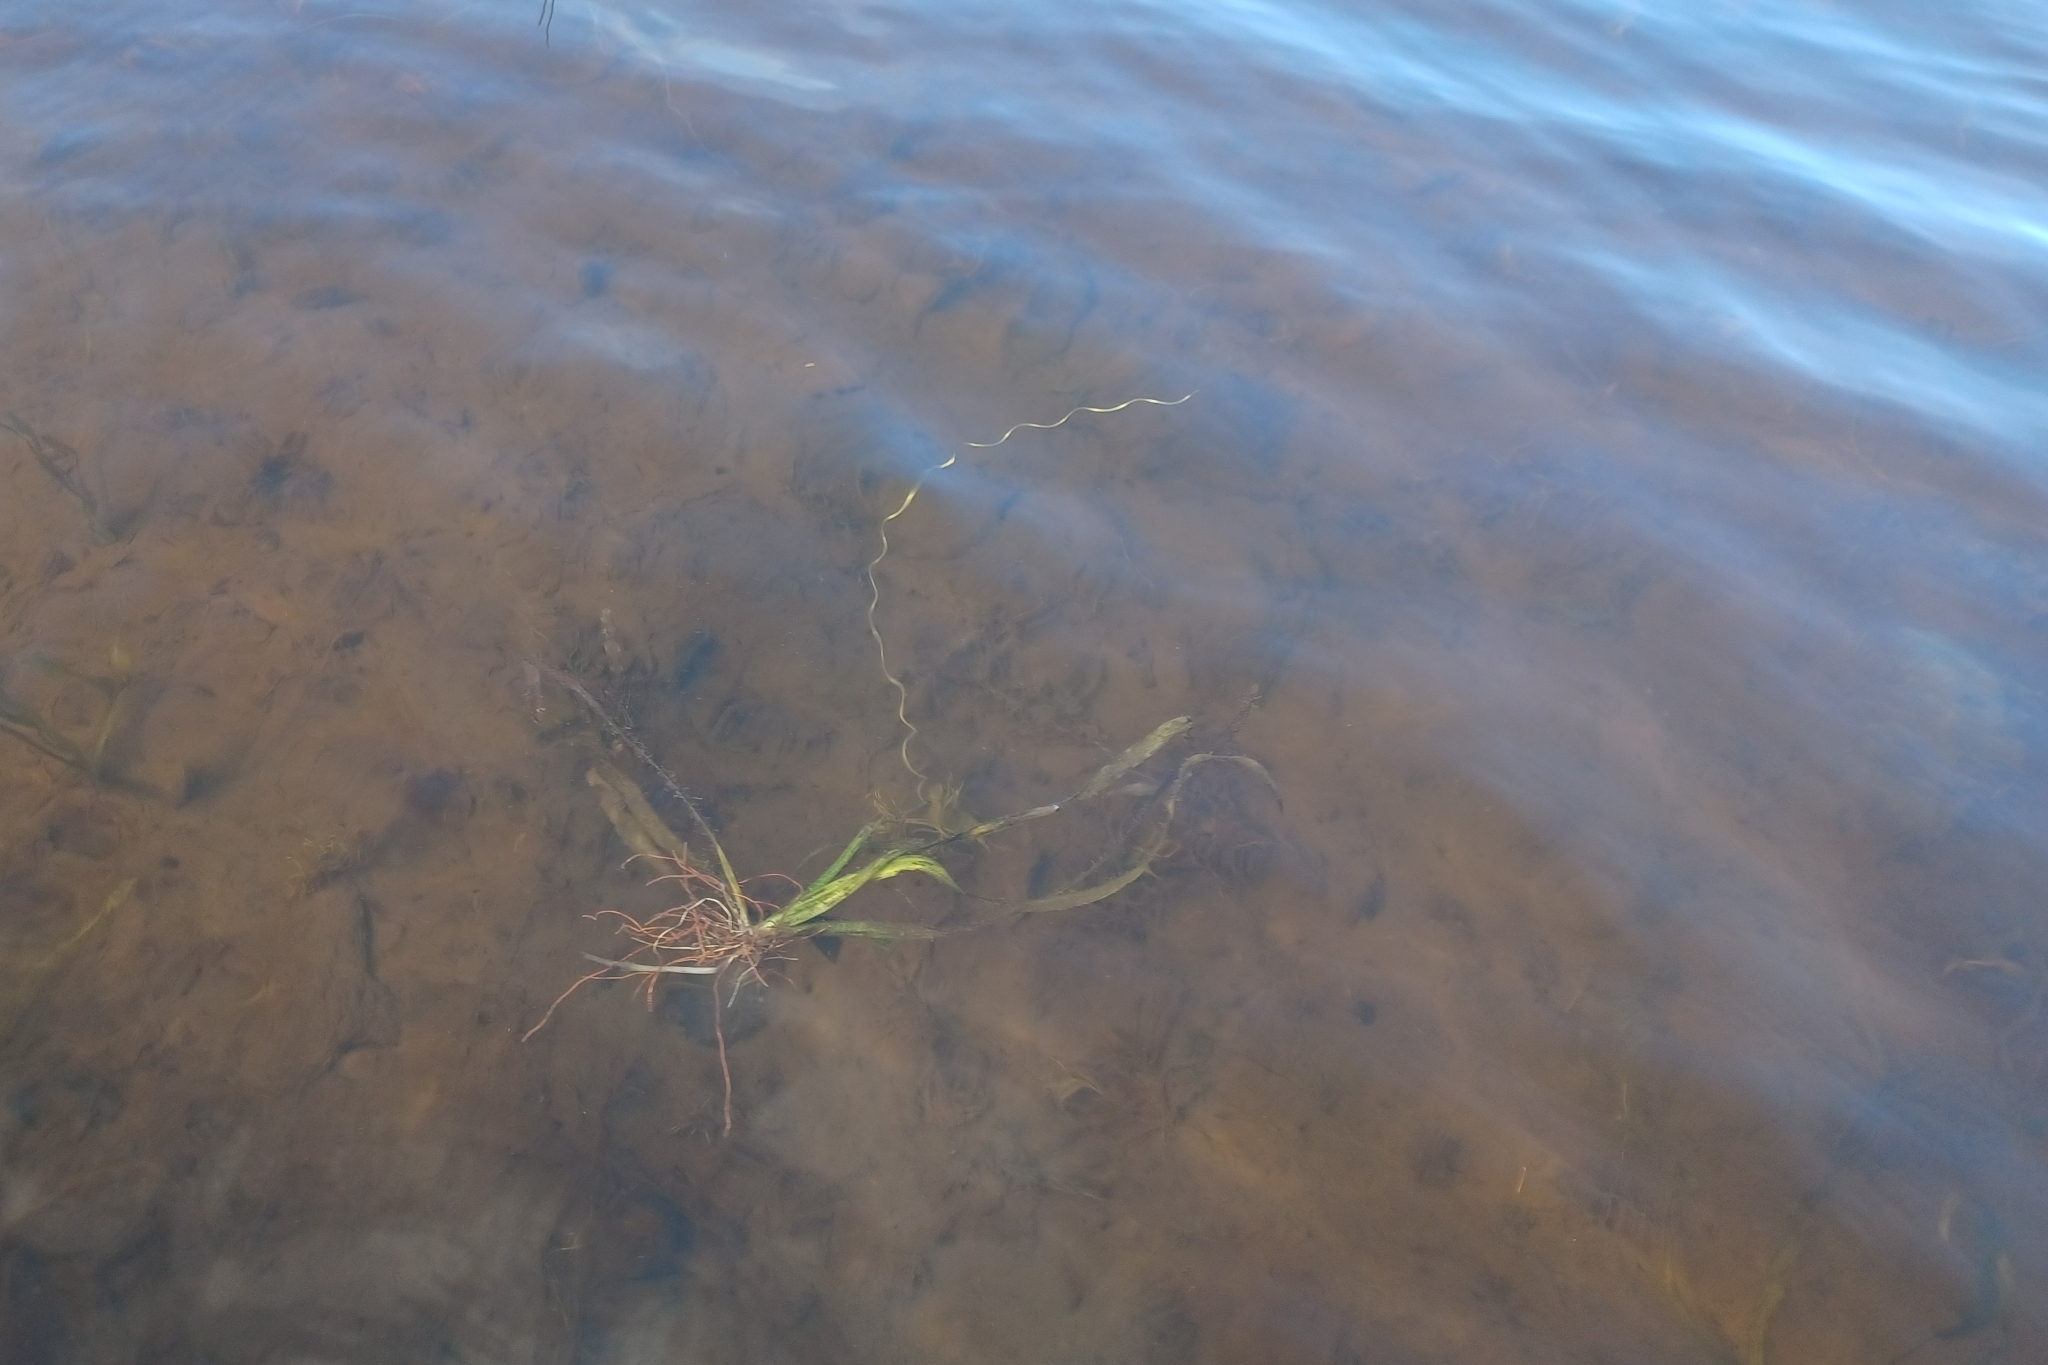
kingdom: Plantae
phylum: Tracheophyta
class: Liliopsida
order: Alismatales
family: Hydrocharitaceae
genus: Vallisneria
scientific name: Vallisneria americana
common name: American eelgrass
